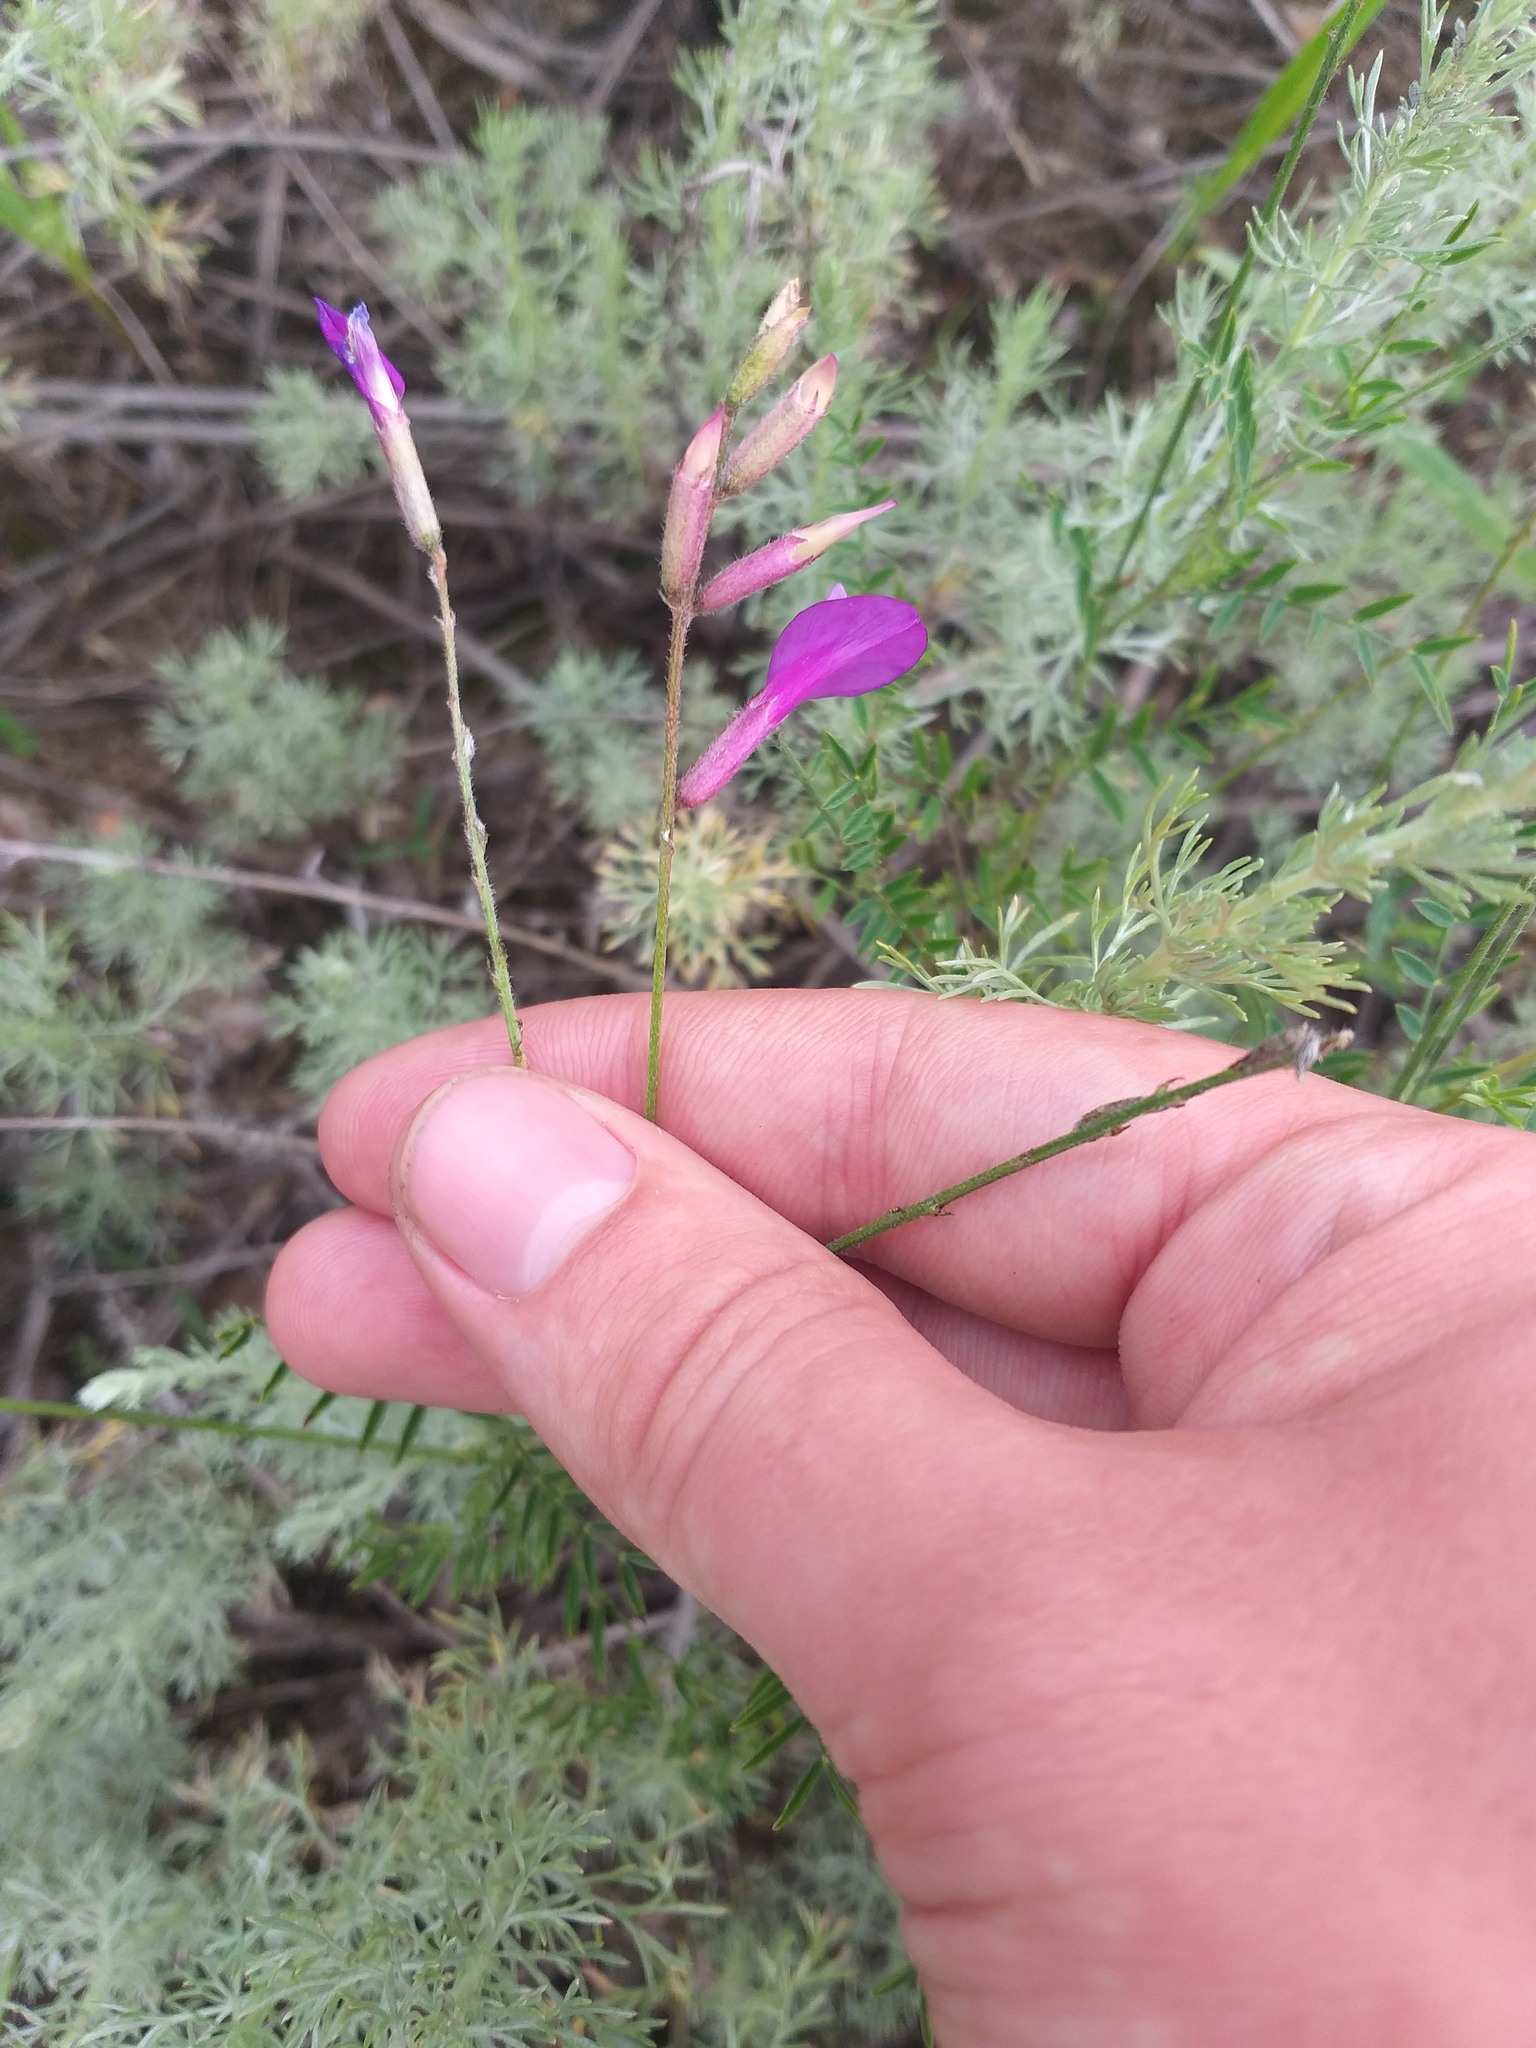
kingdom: Plantae
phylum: Tracheophyta
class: Magnoliopsida
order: Fabales
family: Fabaceae
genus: Astragalus
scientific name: Astragalus varius
